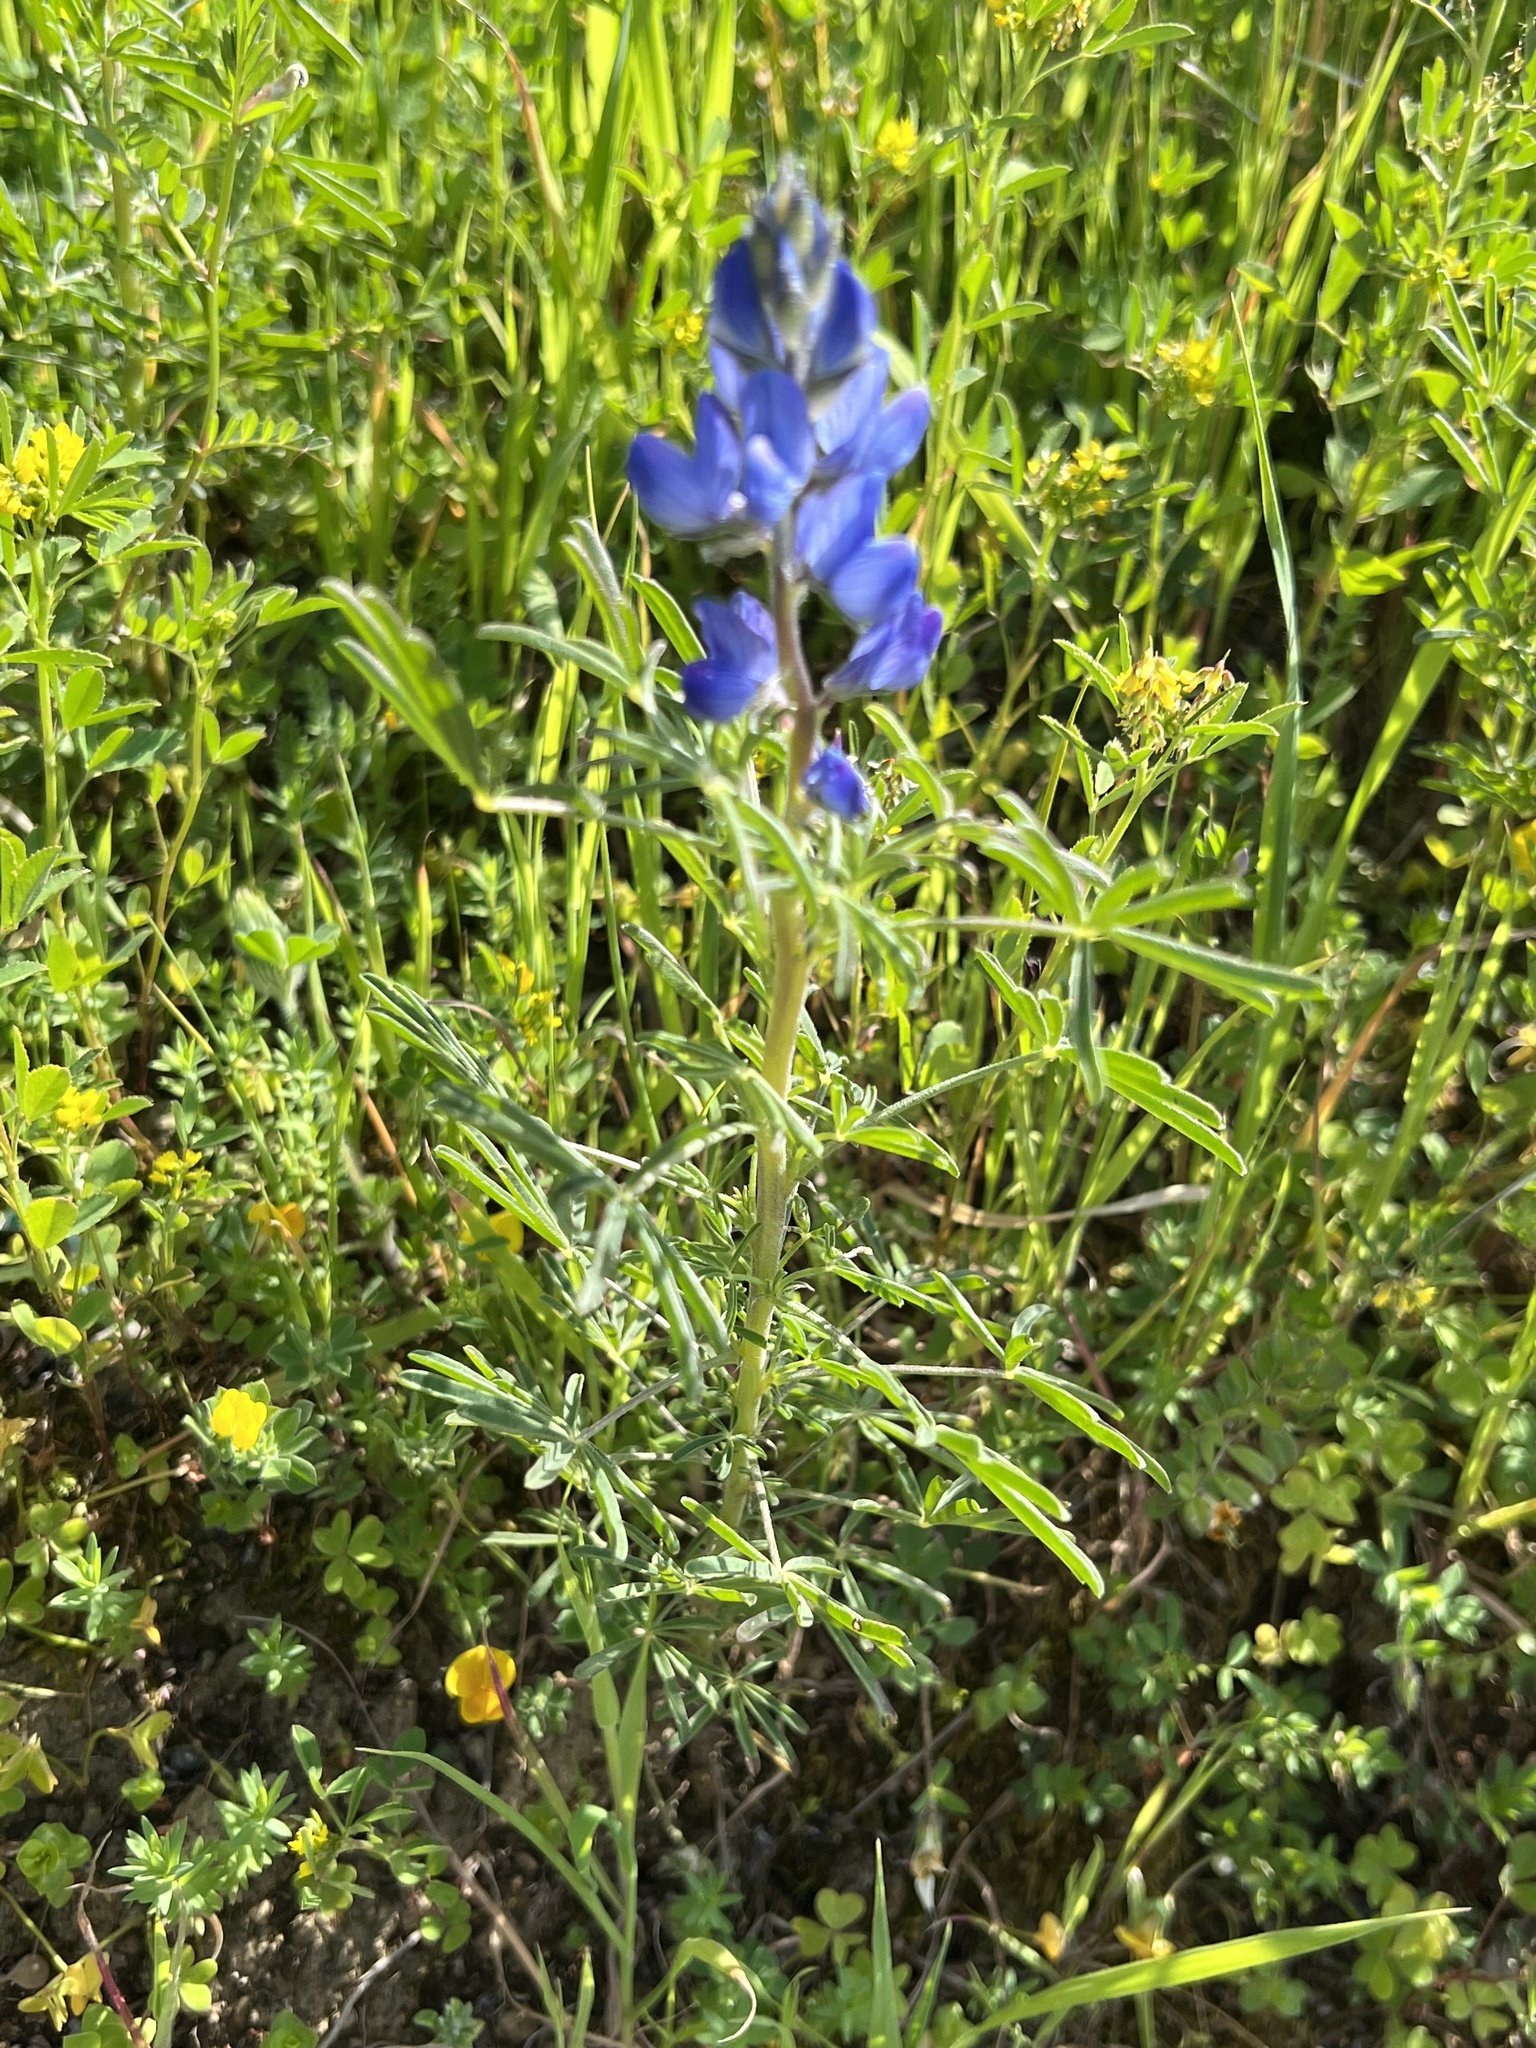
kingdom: Plantae
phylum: Tracheophyta
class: Magnoliopsida
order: Fabales
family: Fabaceae
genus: Lupinus
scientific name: Lupinus angustifolius
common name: Narrow-leaved lupin
